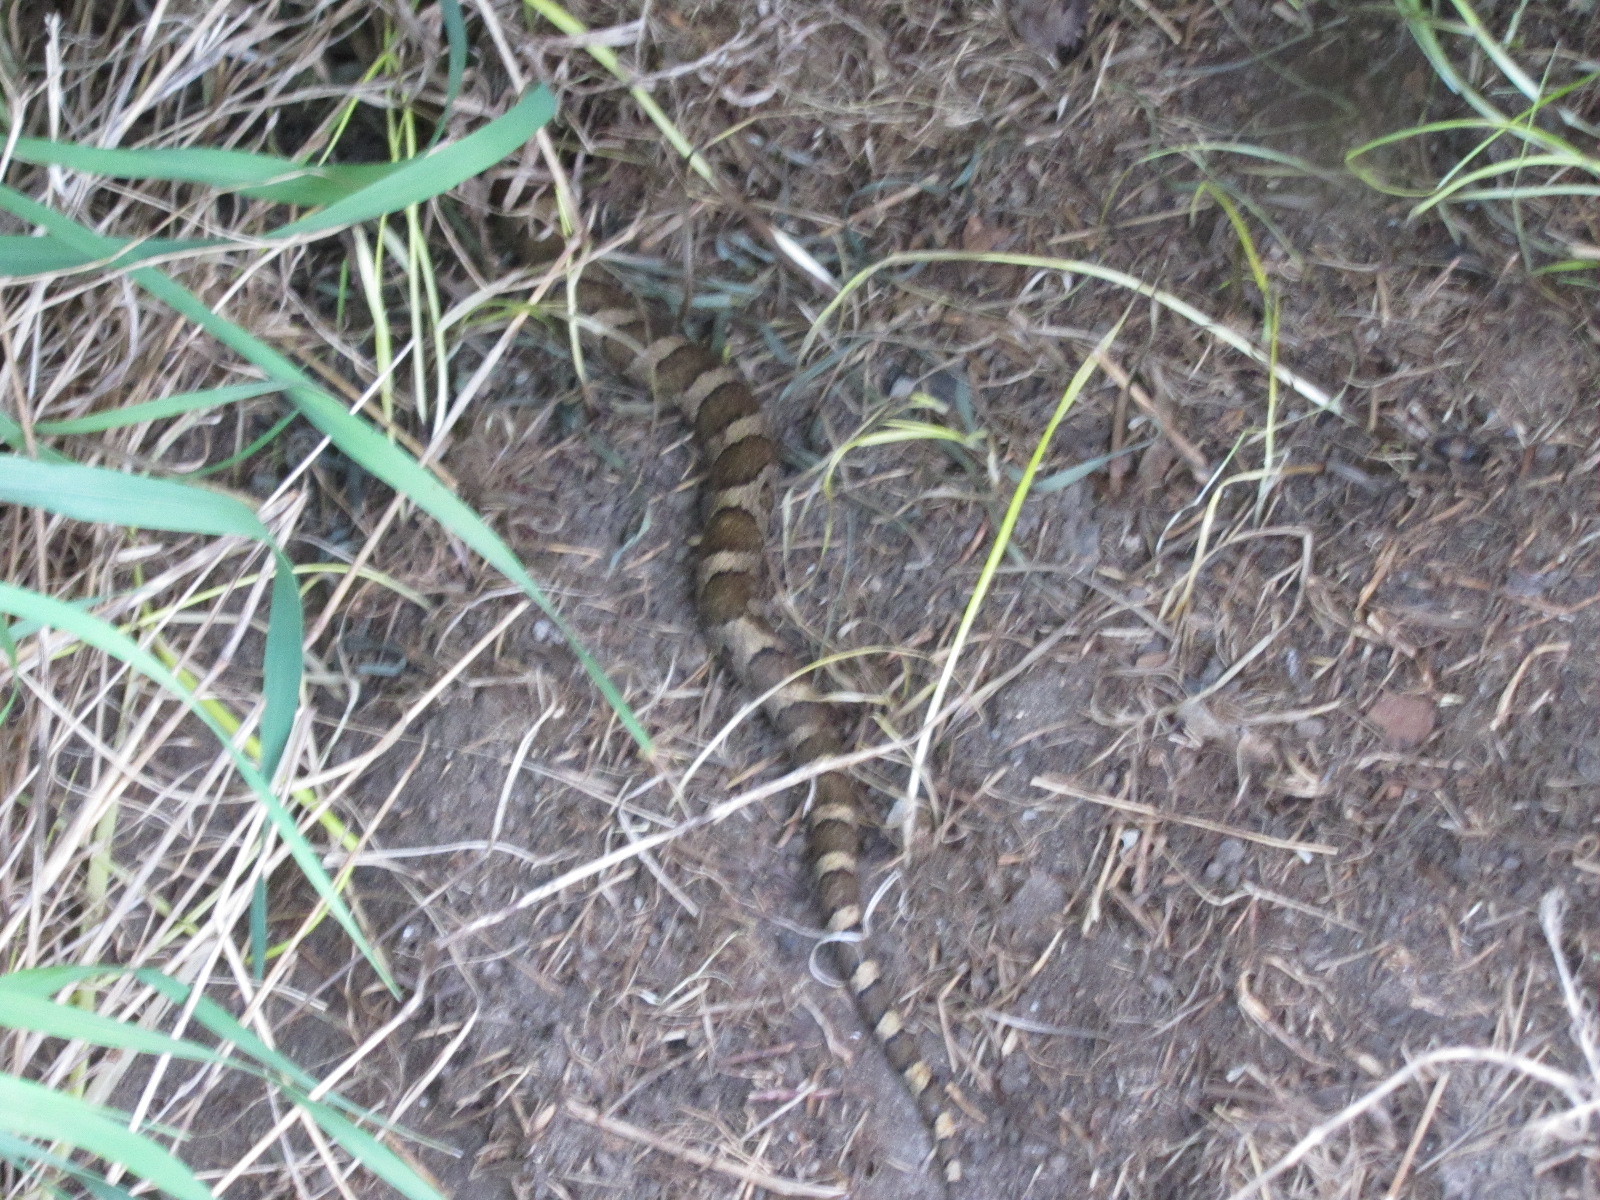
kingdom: Animalia
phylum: Chordata
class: Squamata
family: Colubridae
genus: Lampropeltis
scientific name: Lampropeltis triangulum
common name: Eastern milksnake
